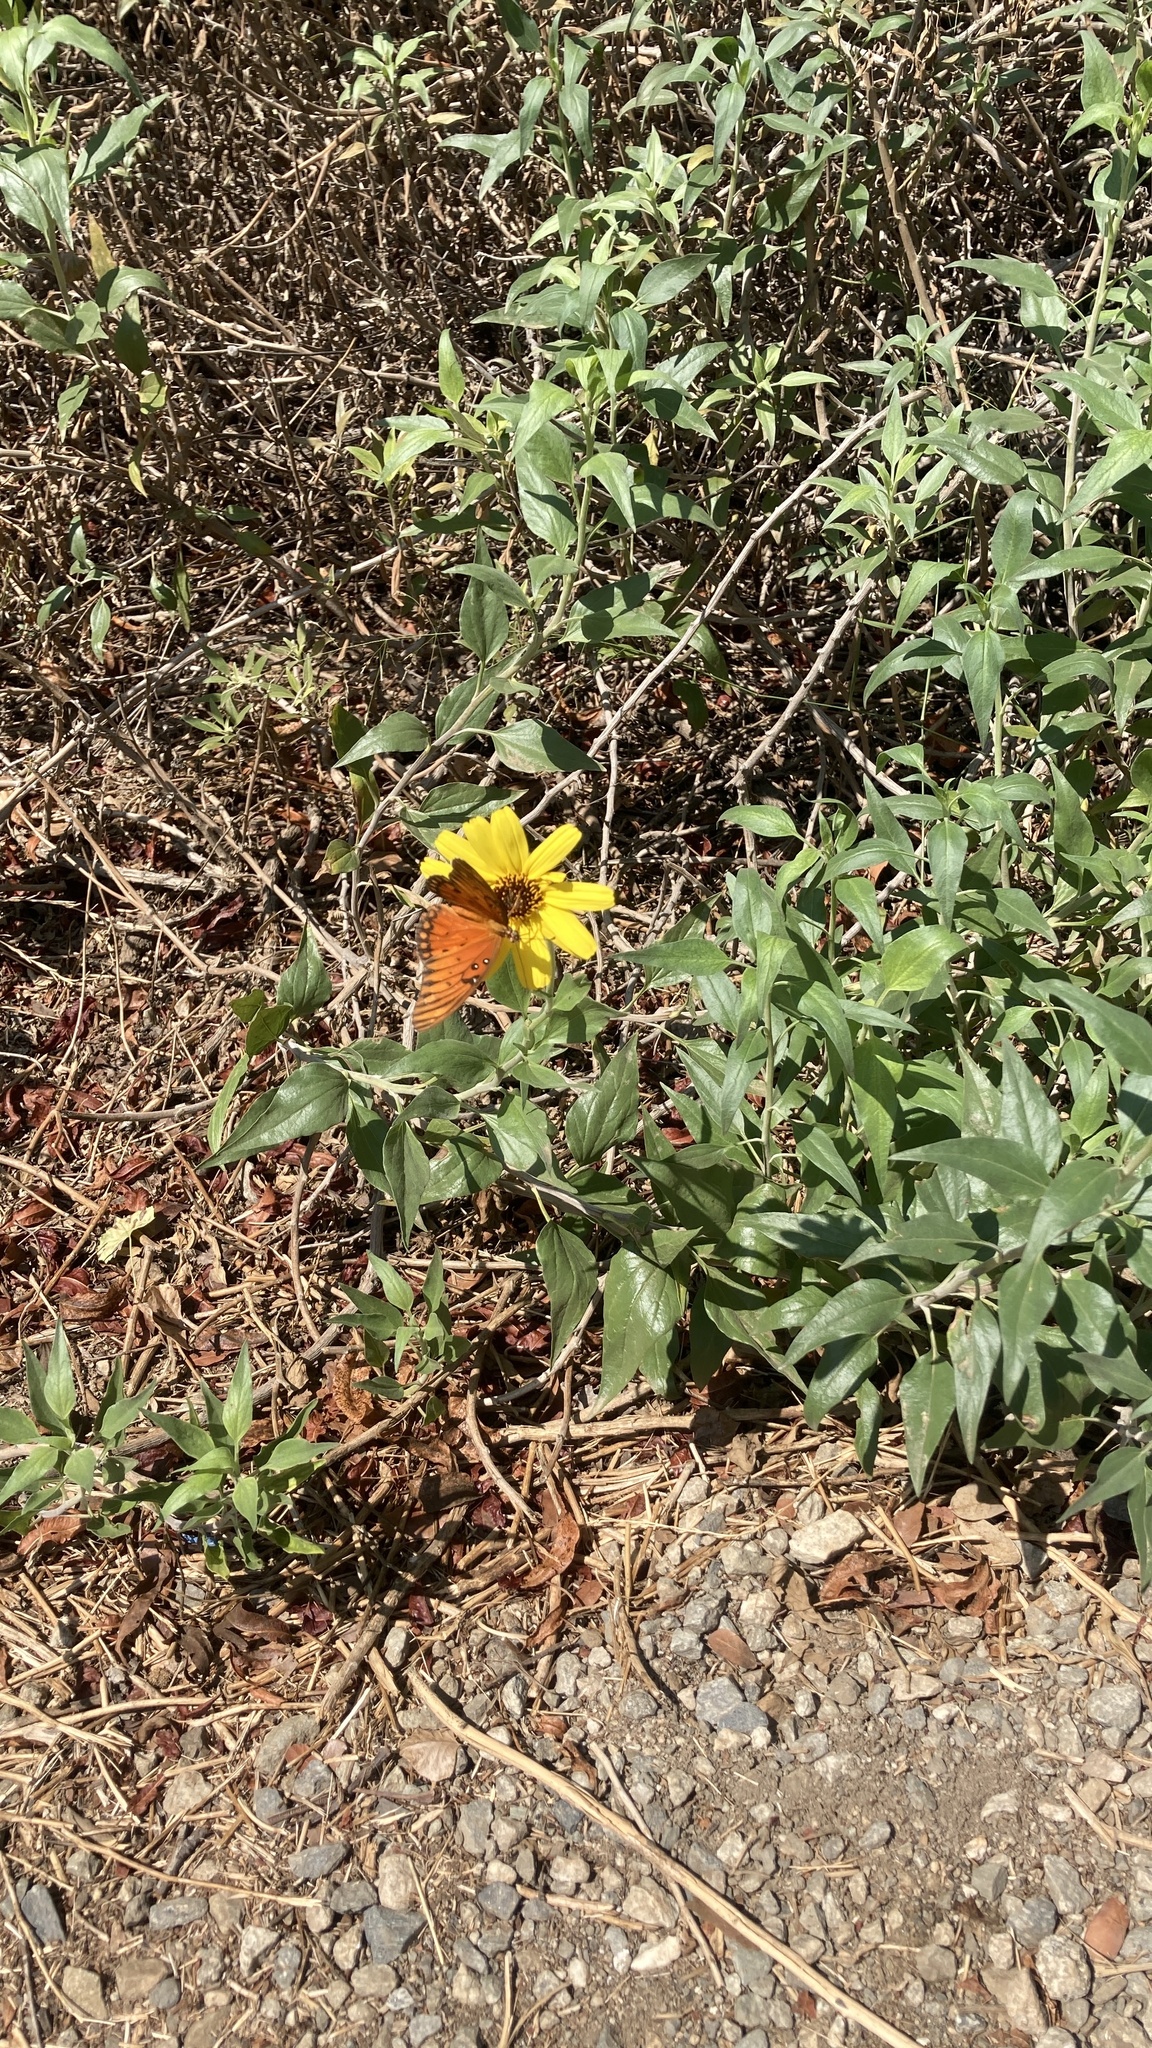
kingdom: Animalia
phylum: Arthropoda
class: Insecta
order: Lepidoptera
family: Nymphalidae
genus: Dione
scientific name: Dione vanillae
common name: Gulf fritillary
